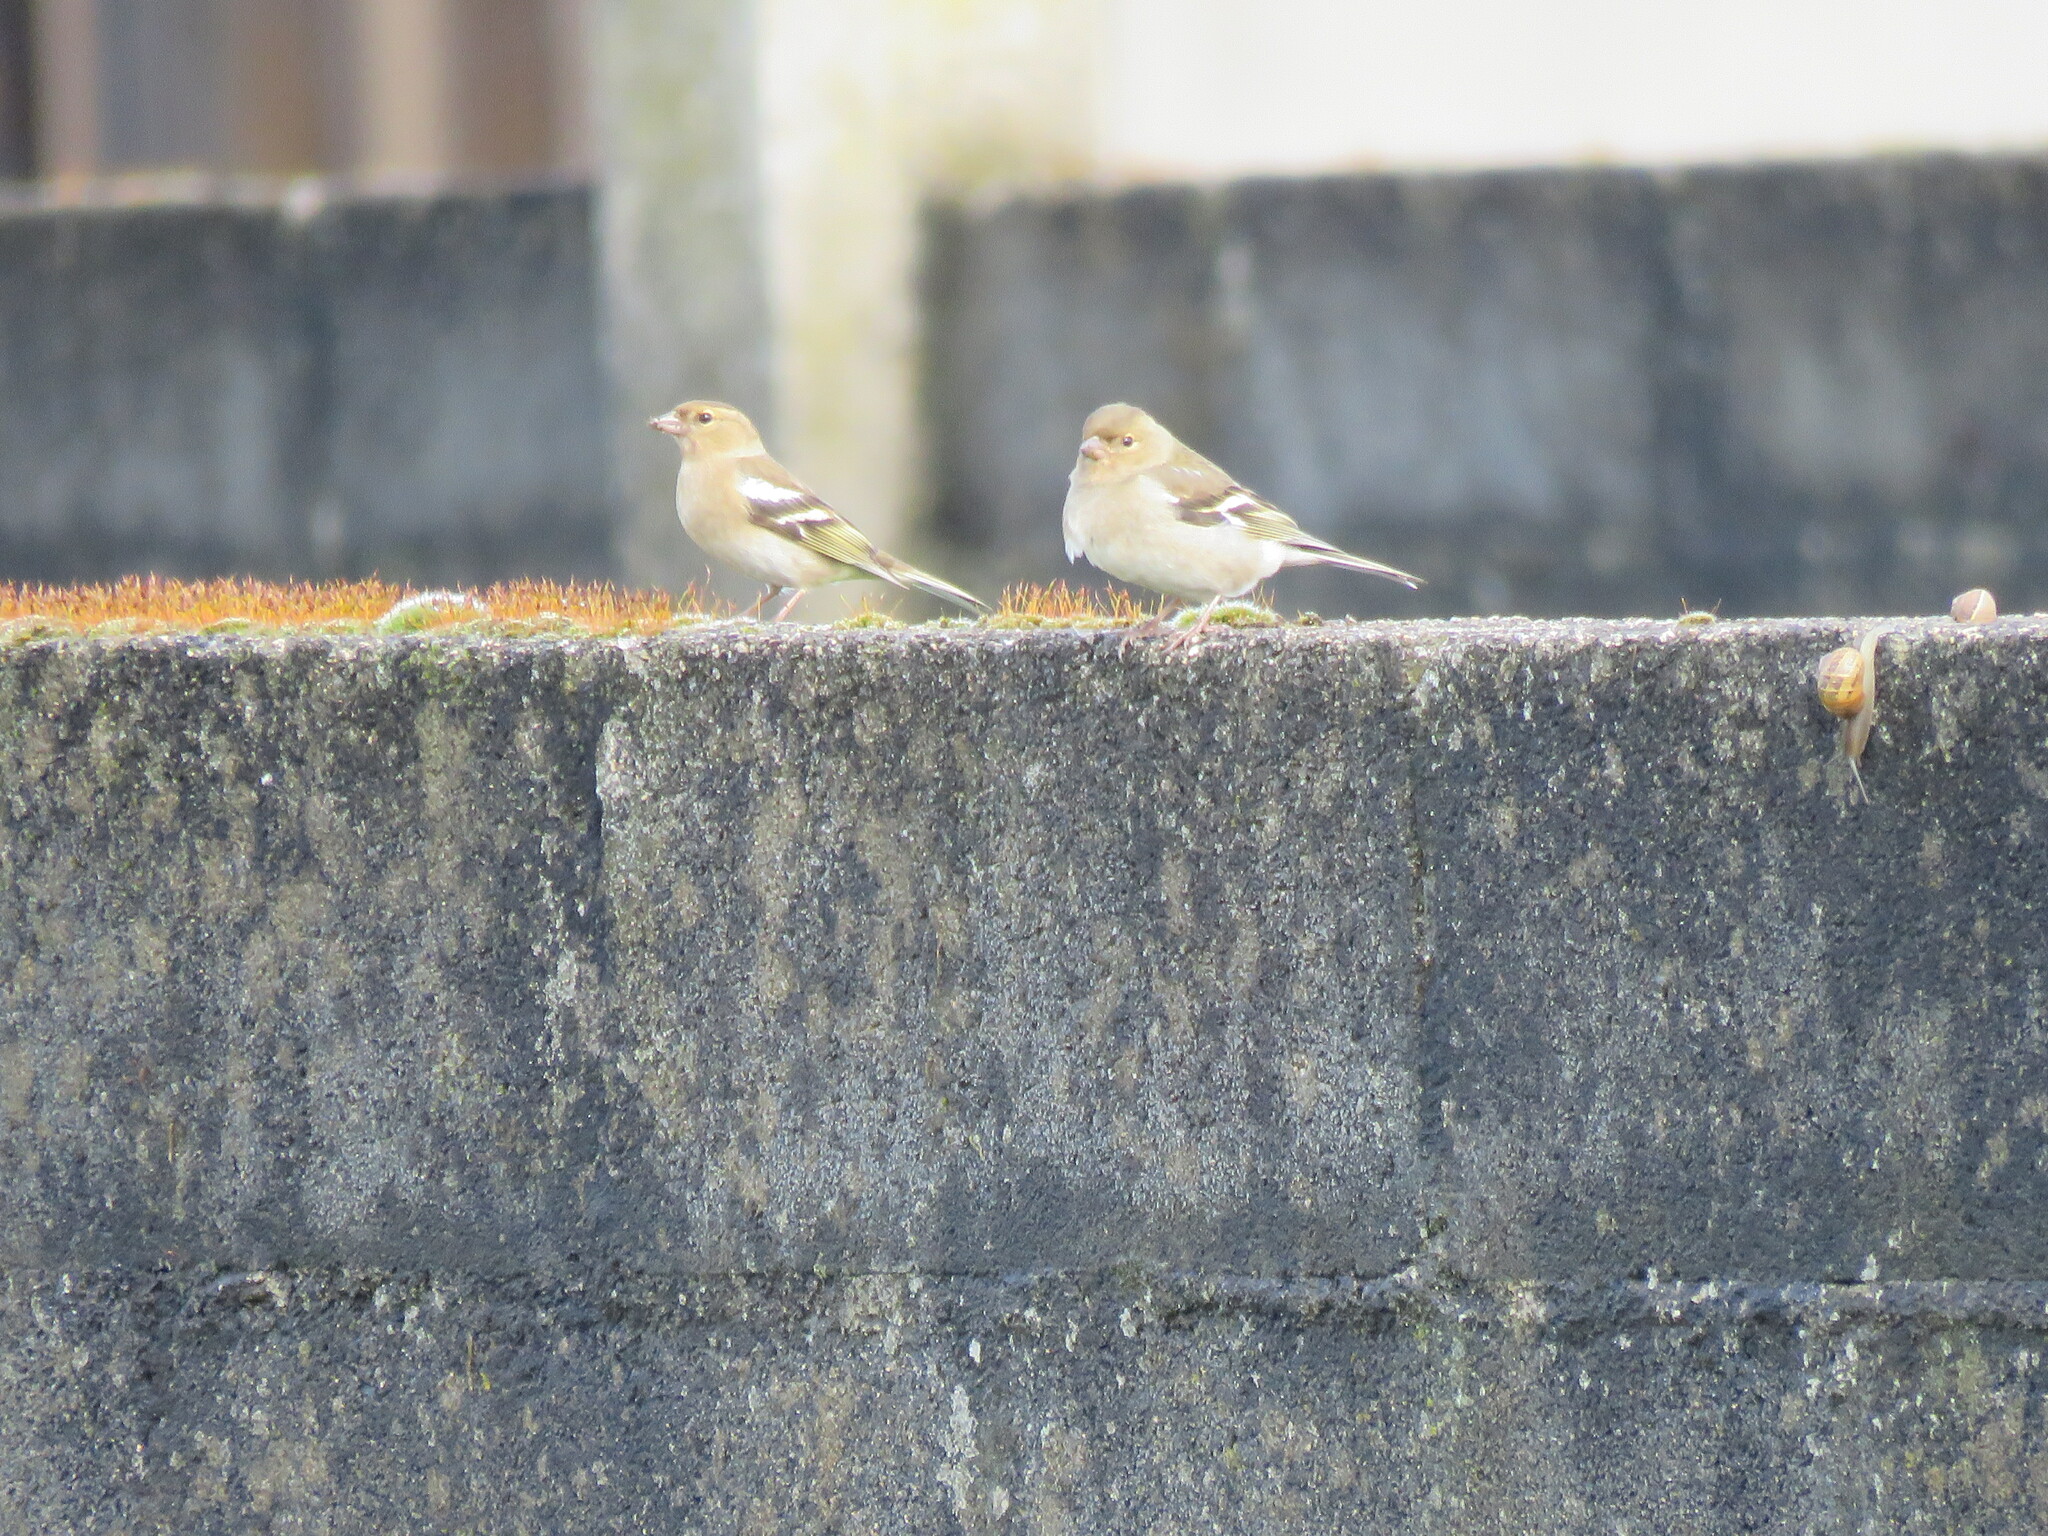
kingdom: Animalia
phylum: Chordata
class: Aves
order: Passeriformes
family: Fringillidae
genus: Fringilla
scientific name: Fringilla coelebs
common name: Common chaffinch
